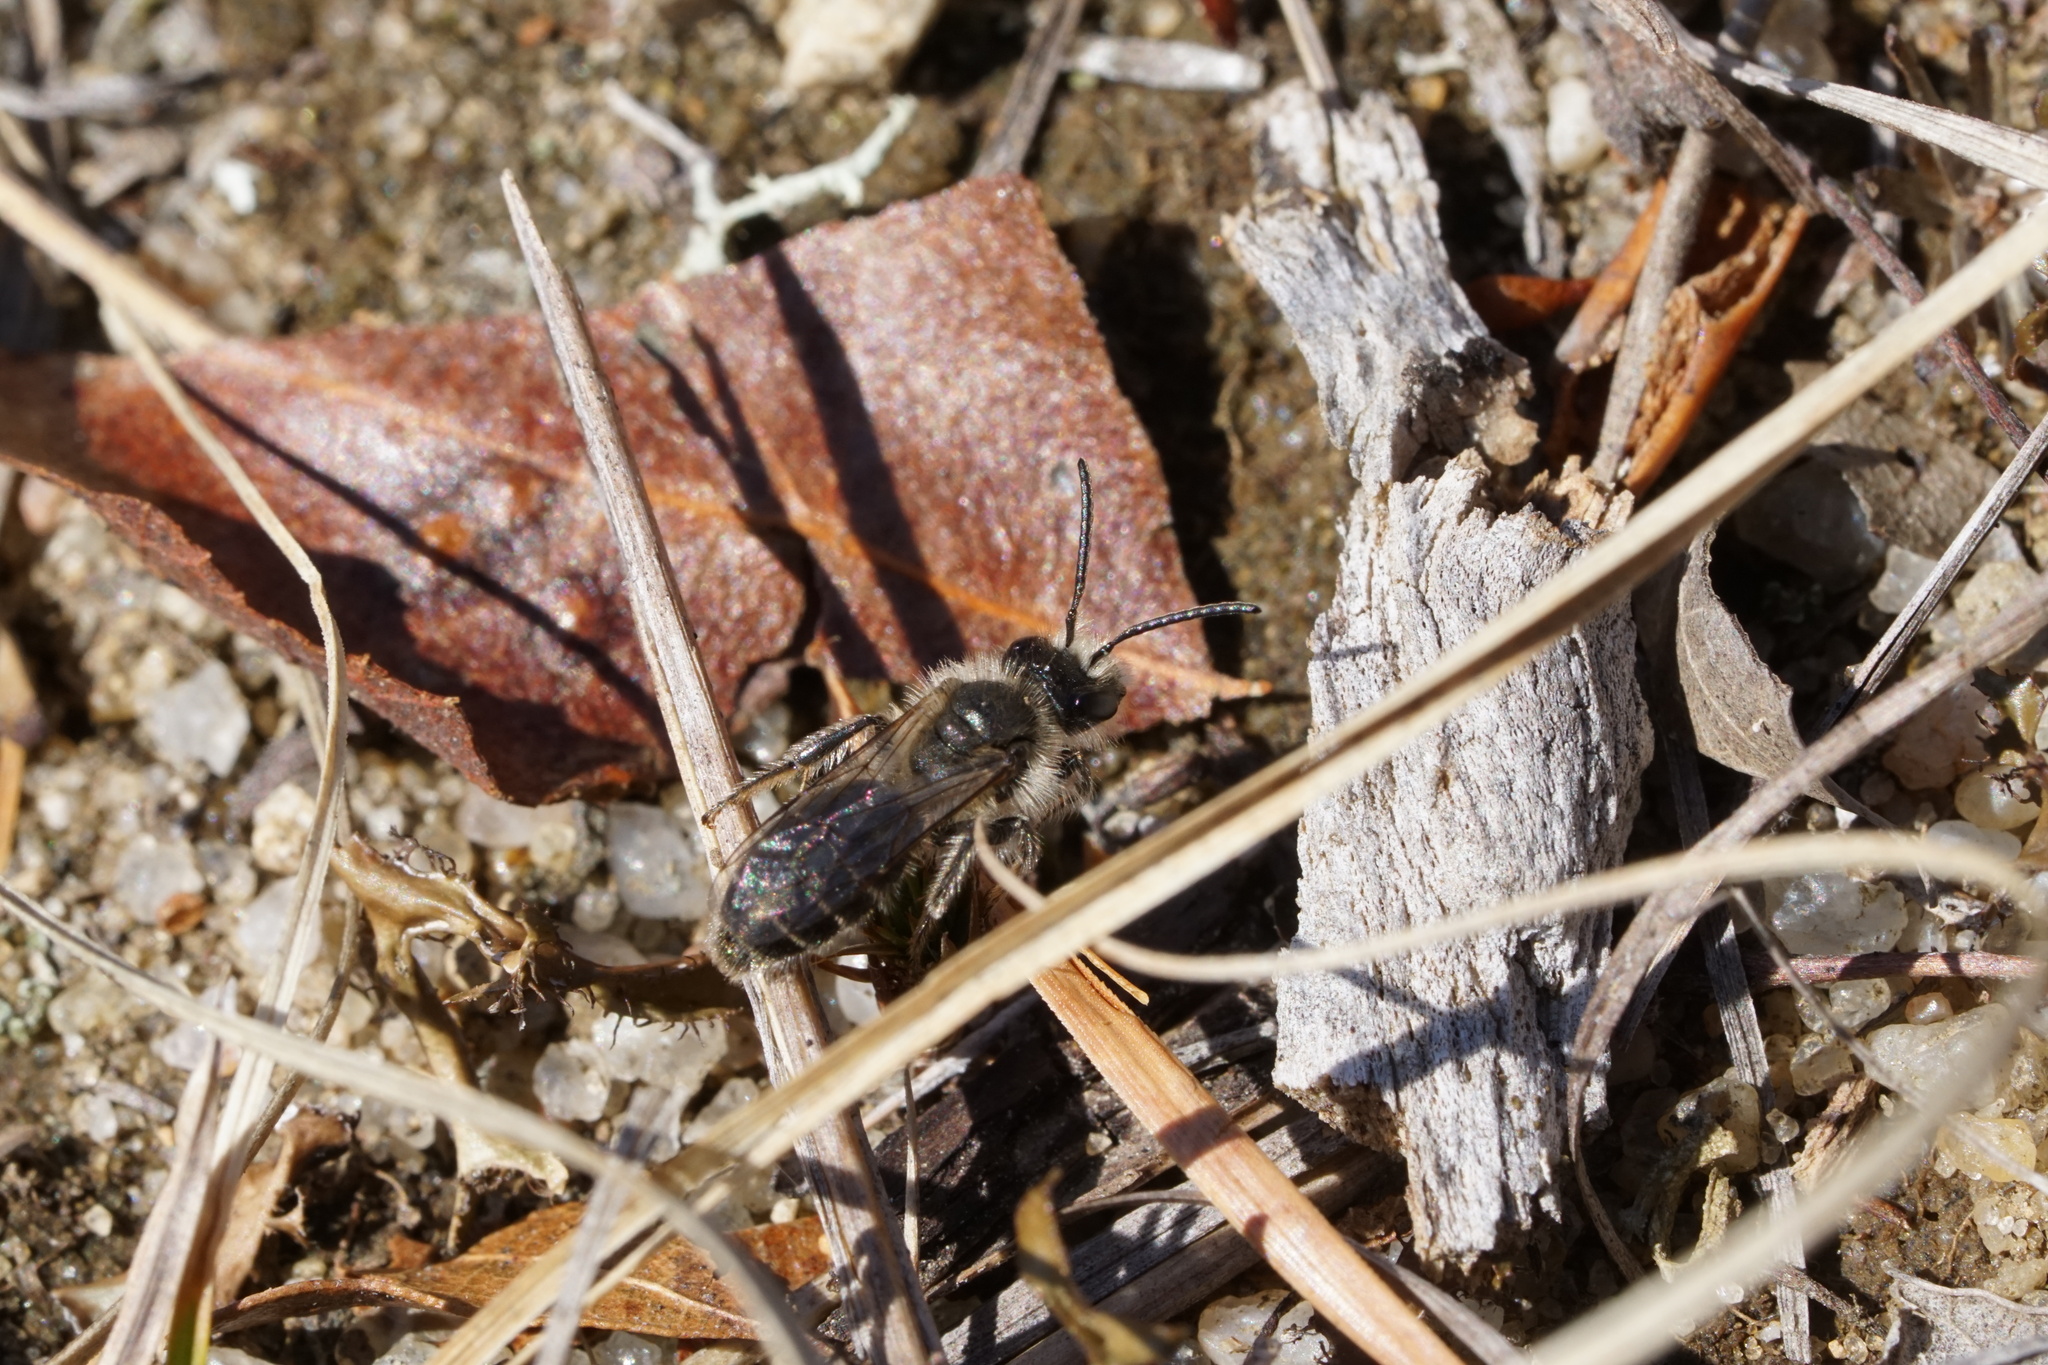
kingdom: Animalia
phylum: Arthropoda
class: Insecta
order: Hymenoptera
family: Andrenidae
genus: Andrena
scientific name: Andrena bradleyi
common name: Bradley's mining bee
